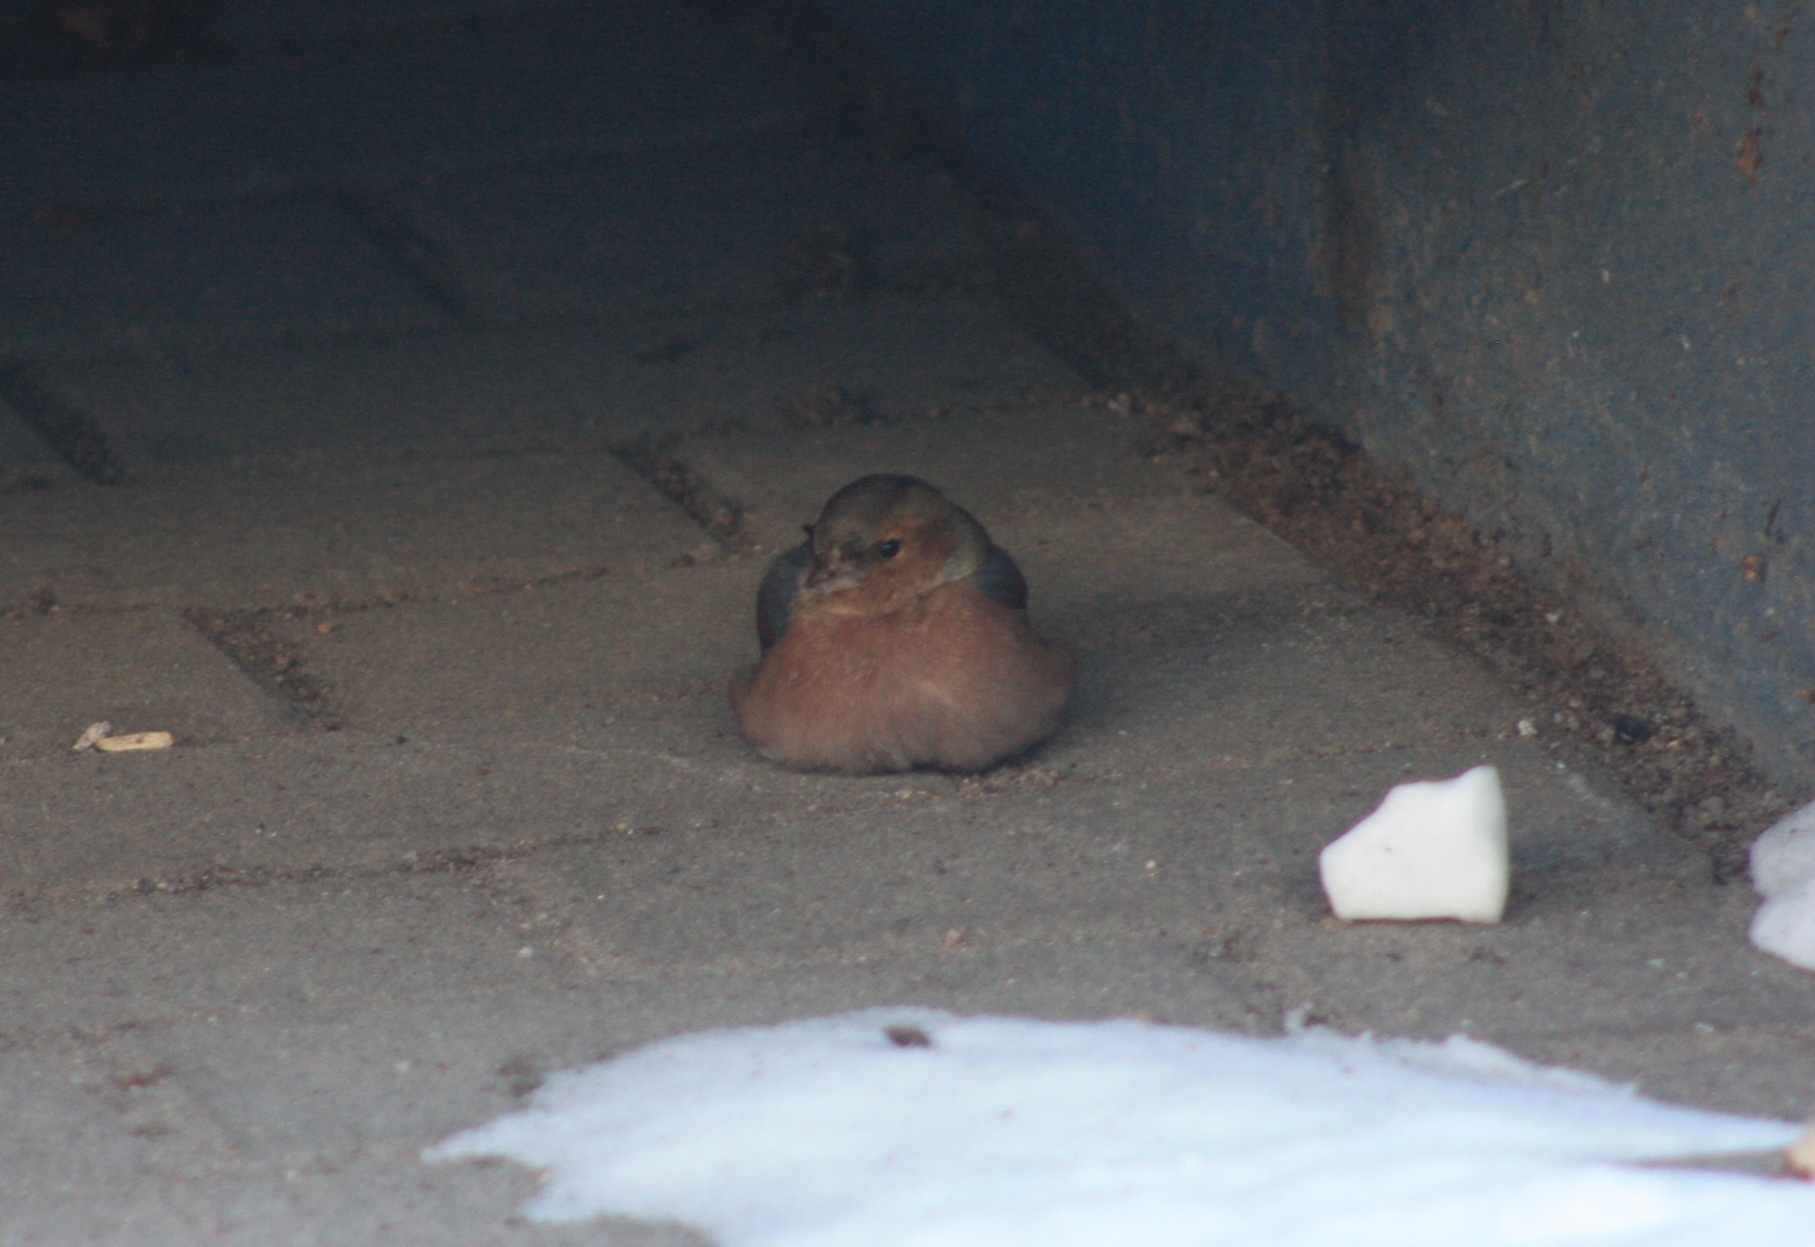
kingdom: Animalia
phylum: Chordata
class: Aves
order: Passeriformes
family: Fringillidae
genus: Fringilla
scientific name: Fringilla coelebs
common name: Common chaffinch
